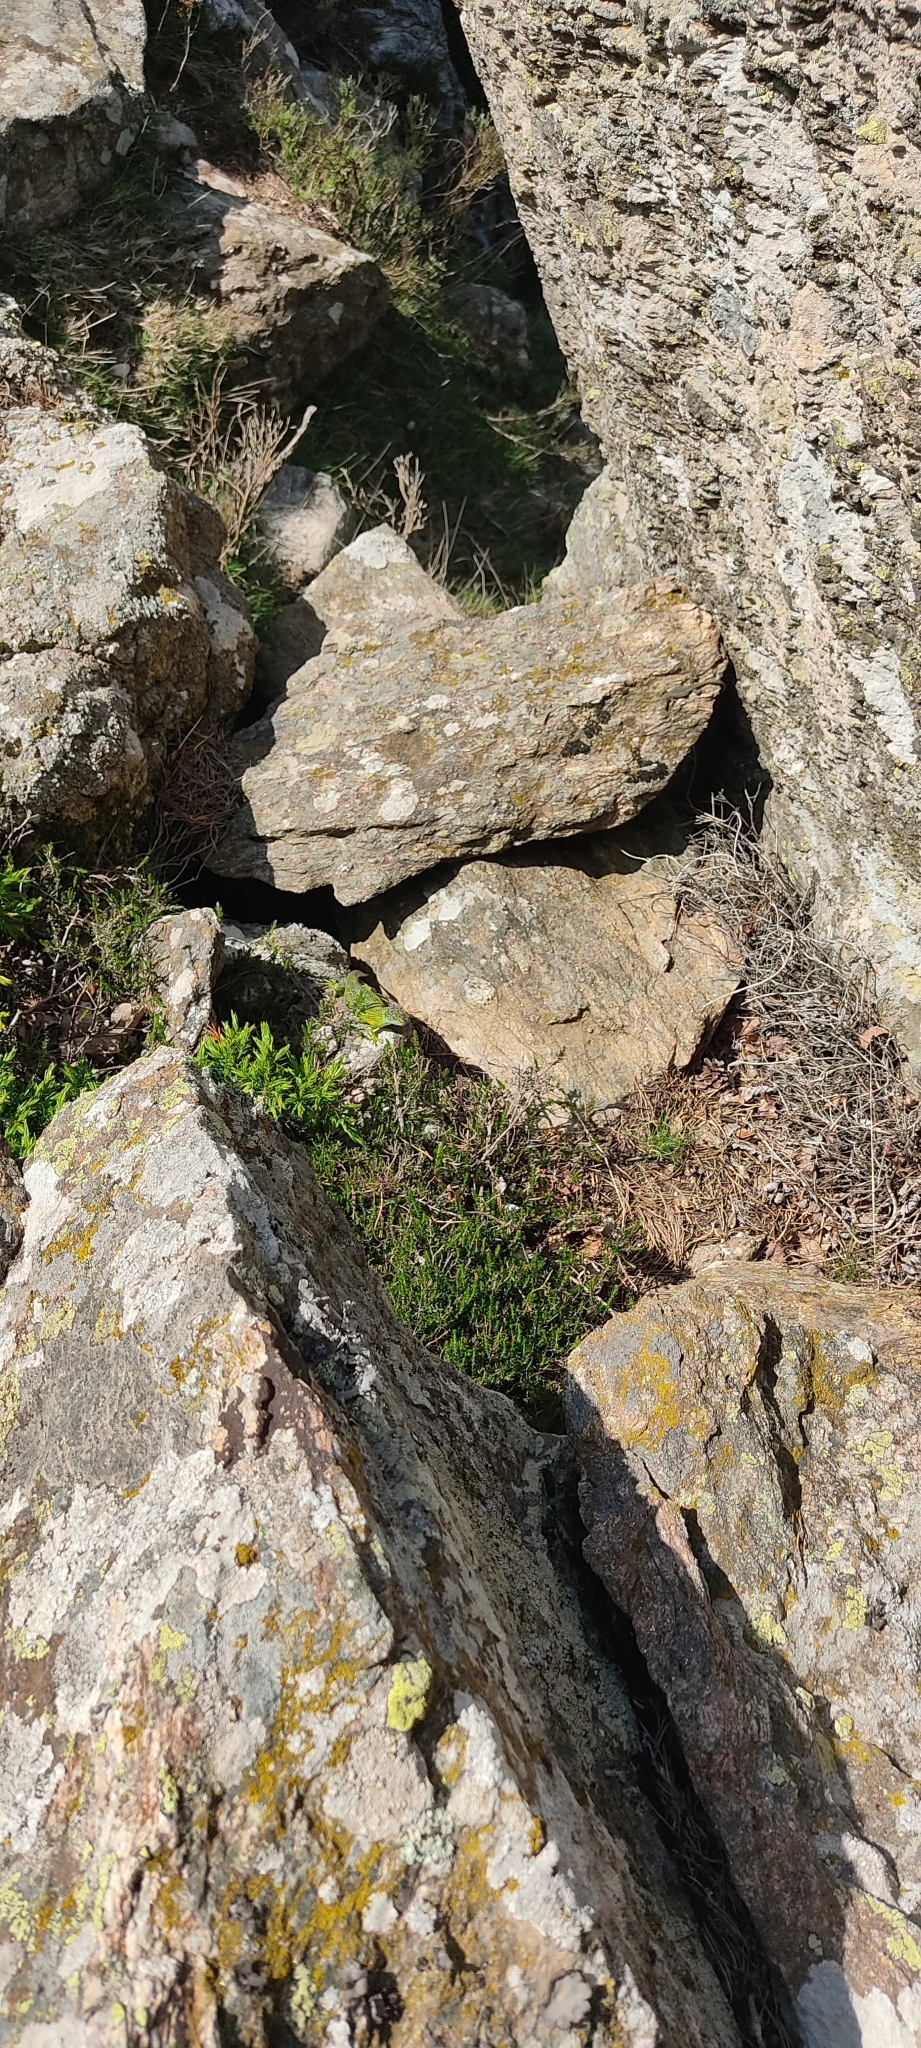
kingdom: Animalia
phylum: Chordata
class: Squamata
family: Lacertidae
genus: Lacerta
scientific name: Lacerta bilineata
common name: Western green lizard
